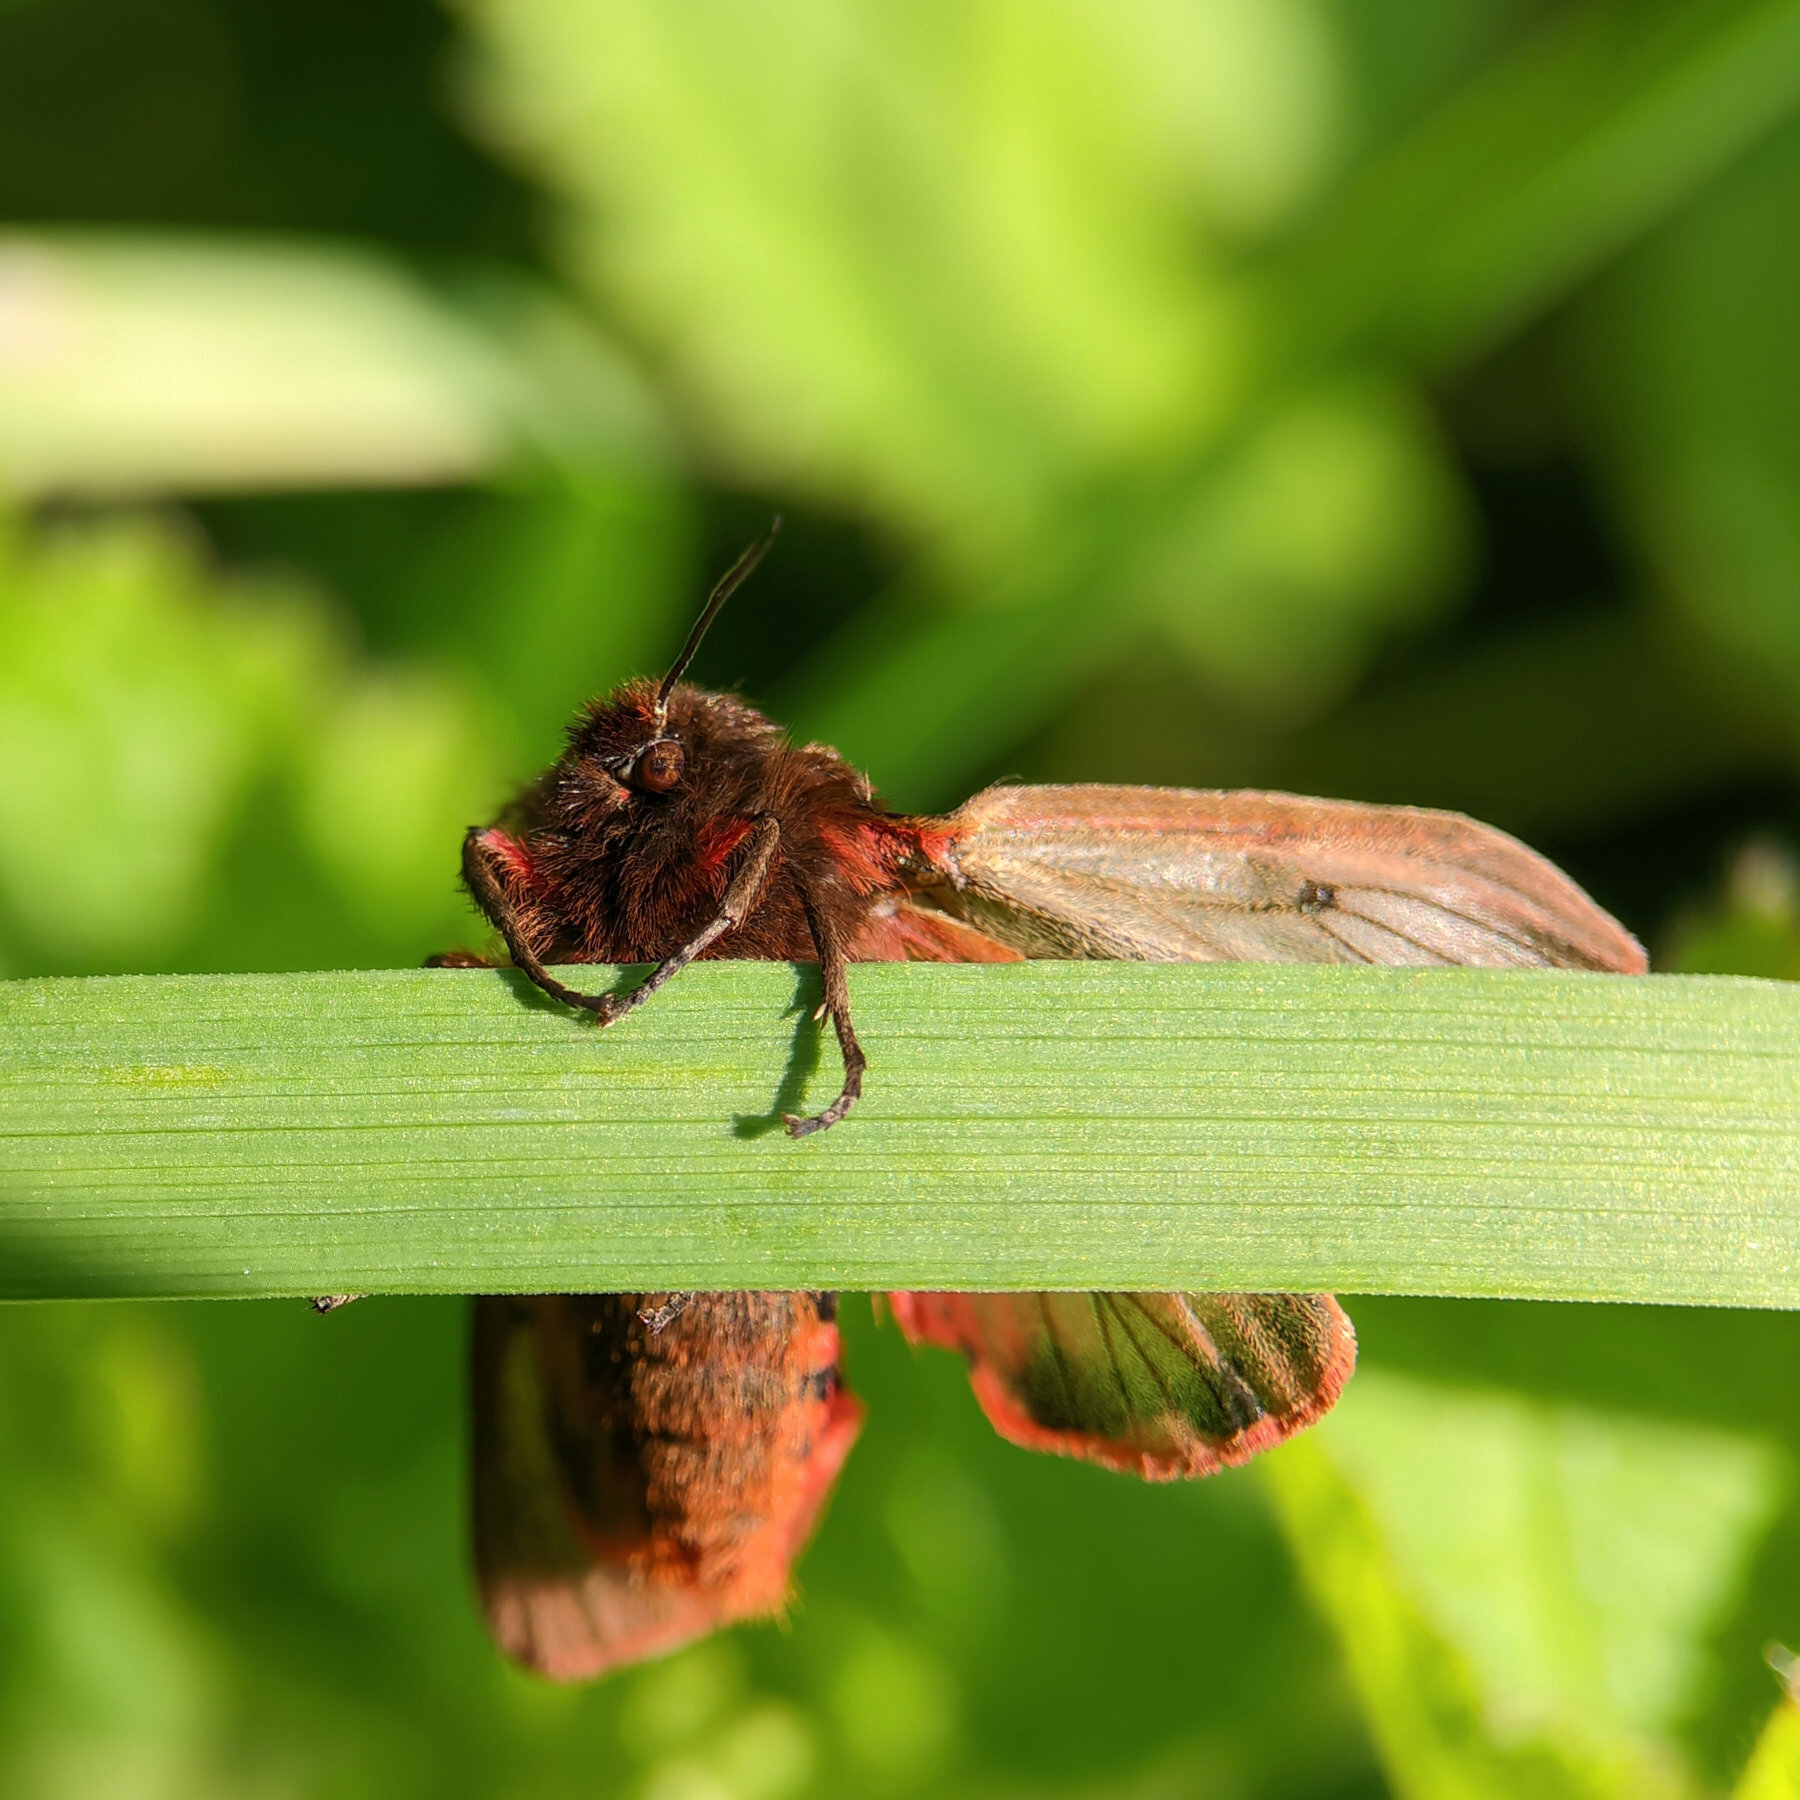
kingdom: Animalia
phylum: Arthropoda
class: Insecta
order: Lepidoptera
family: Erebidae
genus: Phragmatobia
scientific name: Phragmatobia fuliginosa
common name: Ruby tiger
